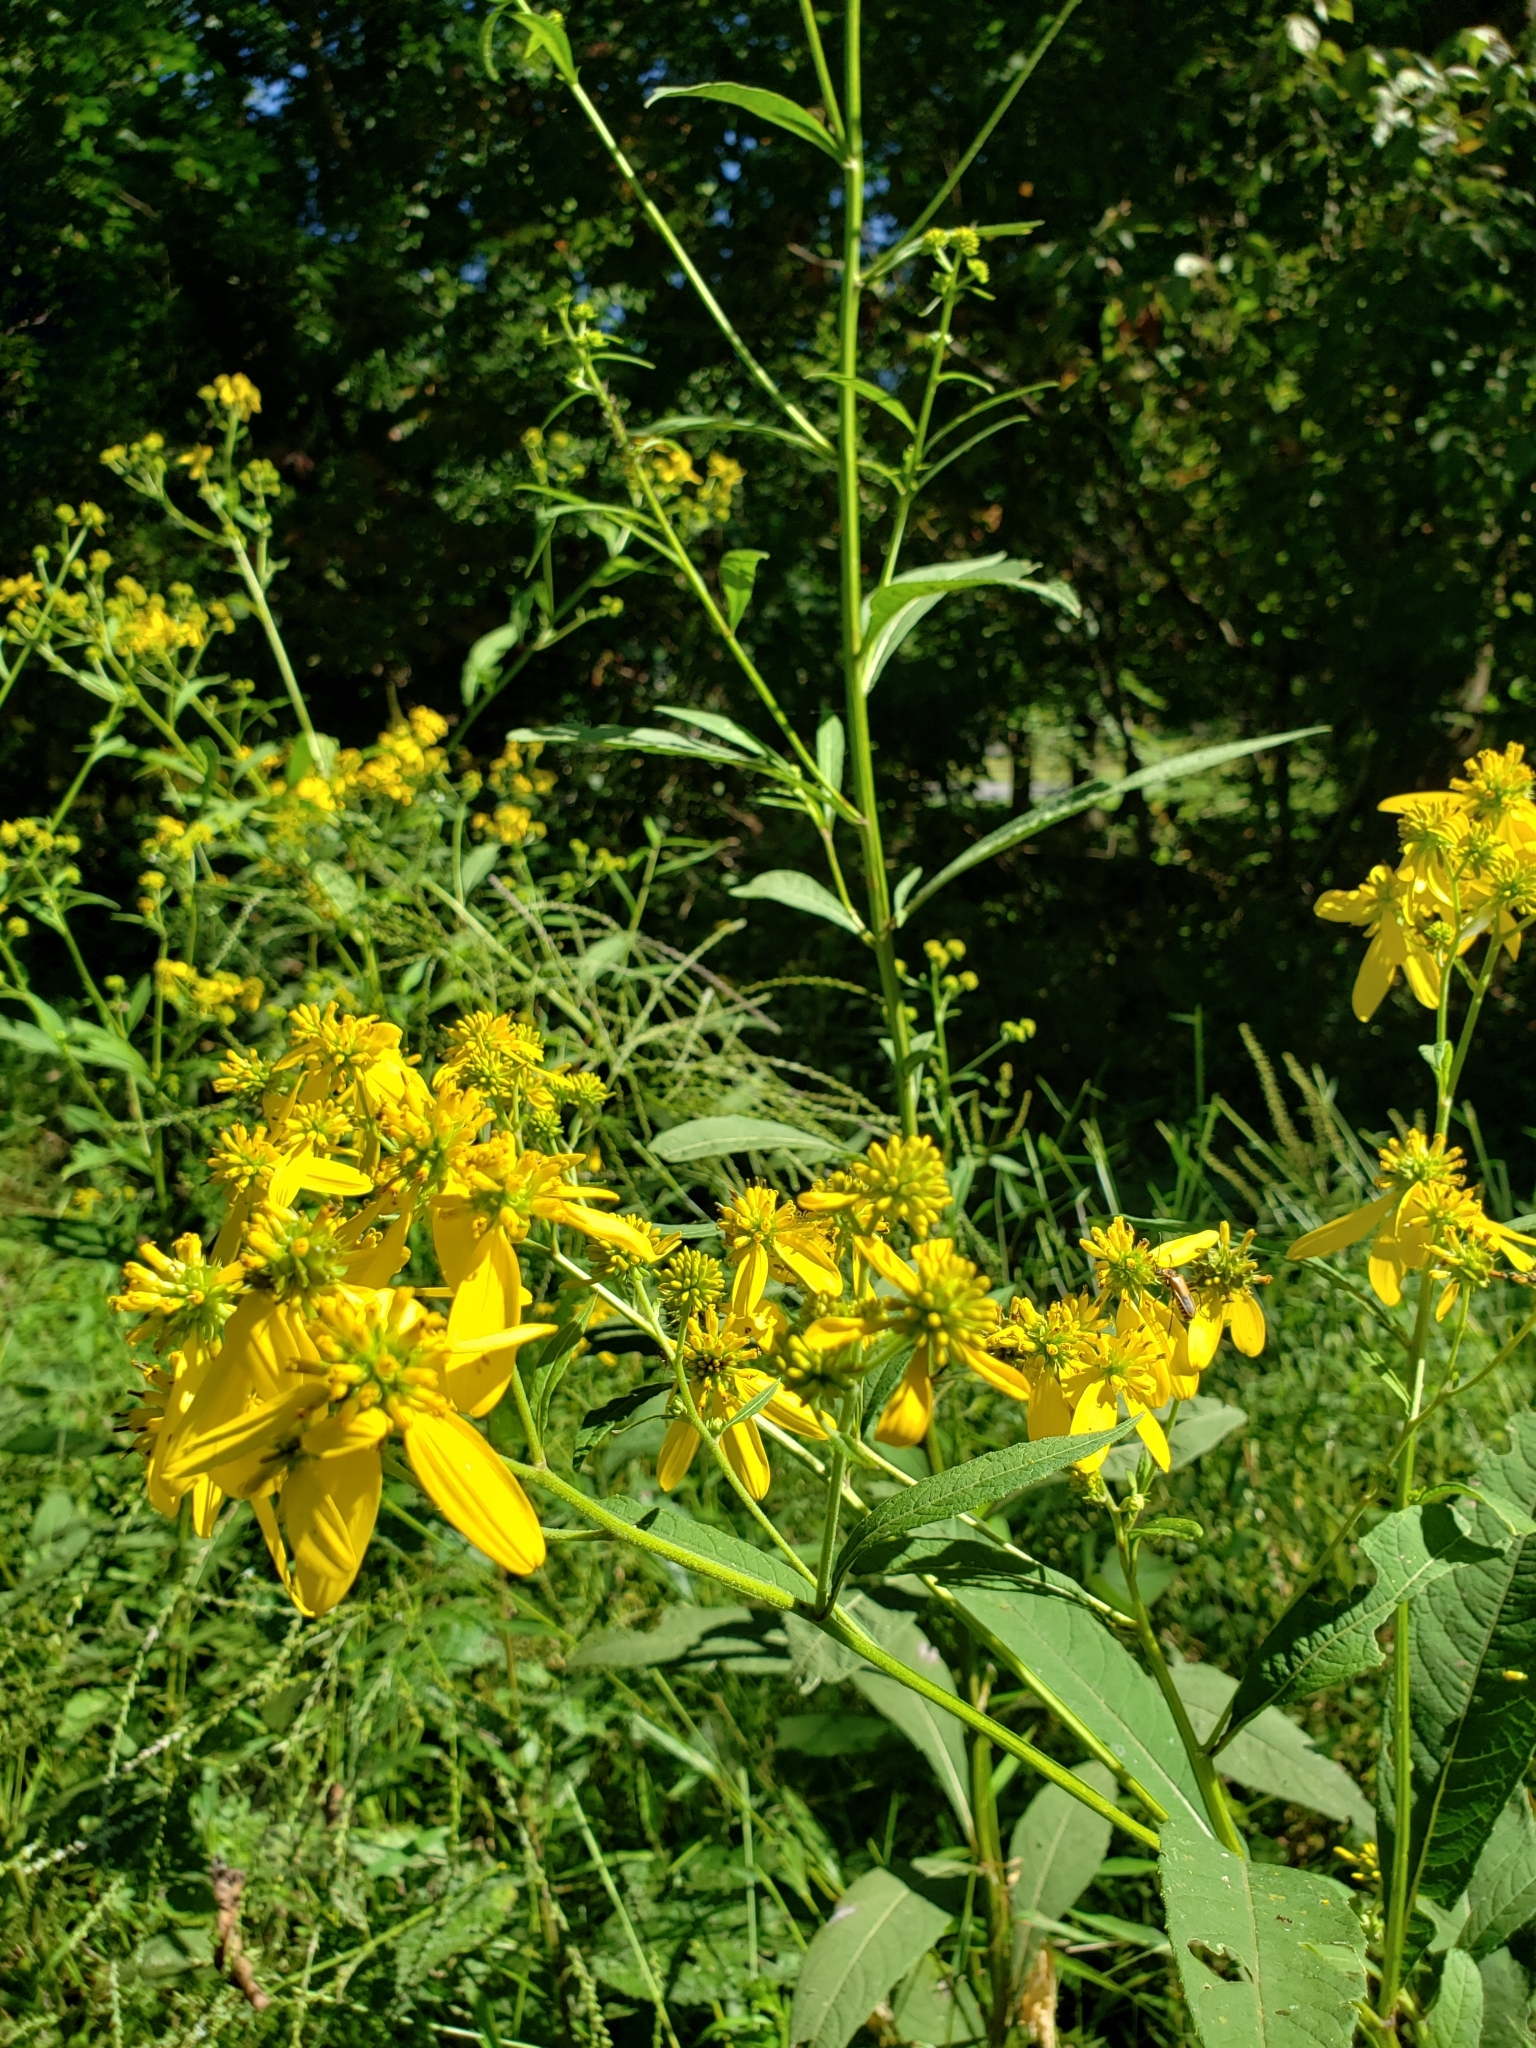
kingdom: Plantae
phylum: Tracheophyta
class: Magnoliopsida
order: Asterales
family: Asteraceae
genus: Verbesina
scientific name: Verbesina alternifolia
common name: Wingstem
